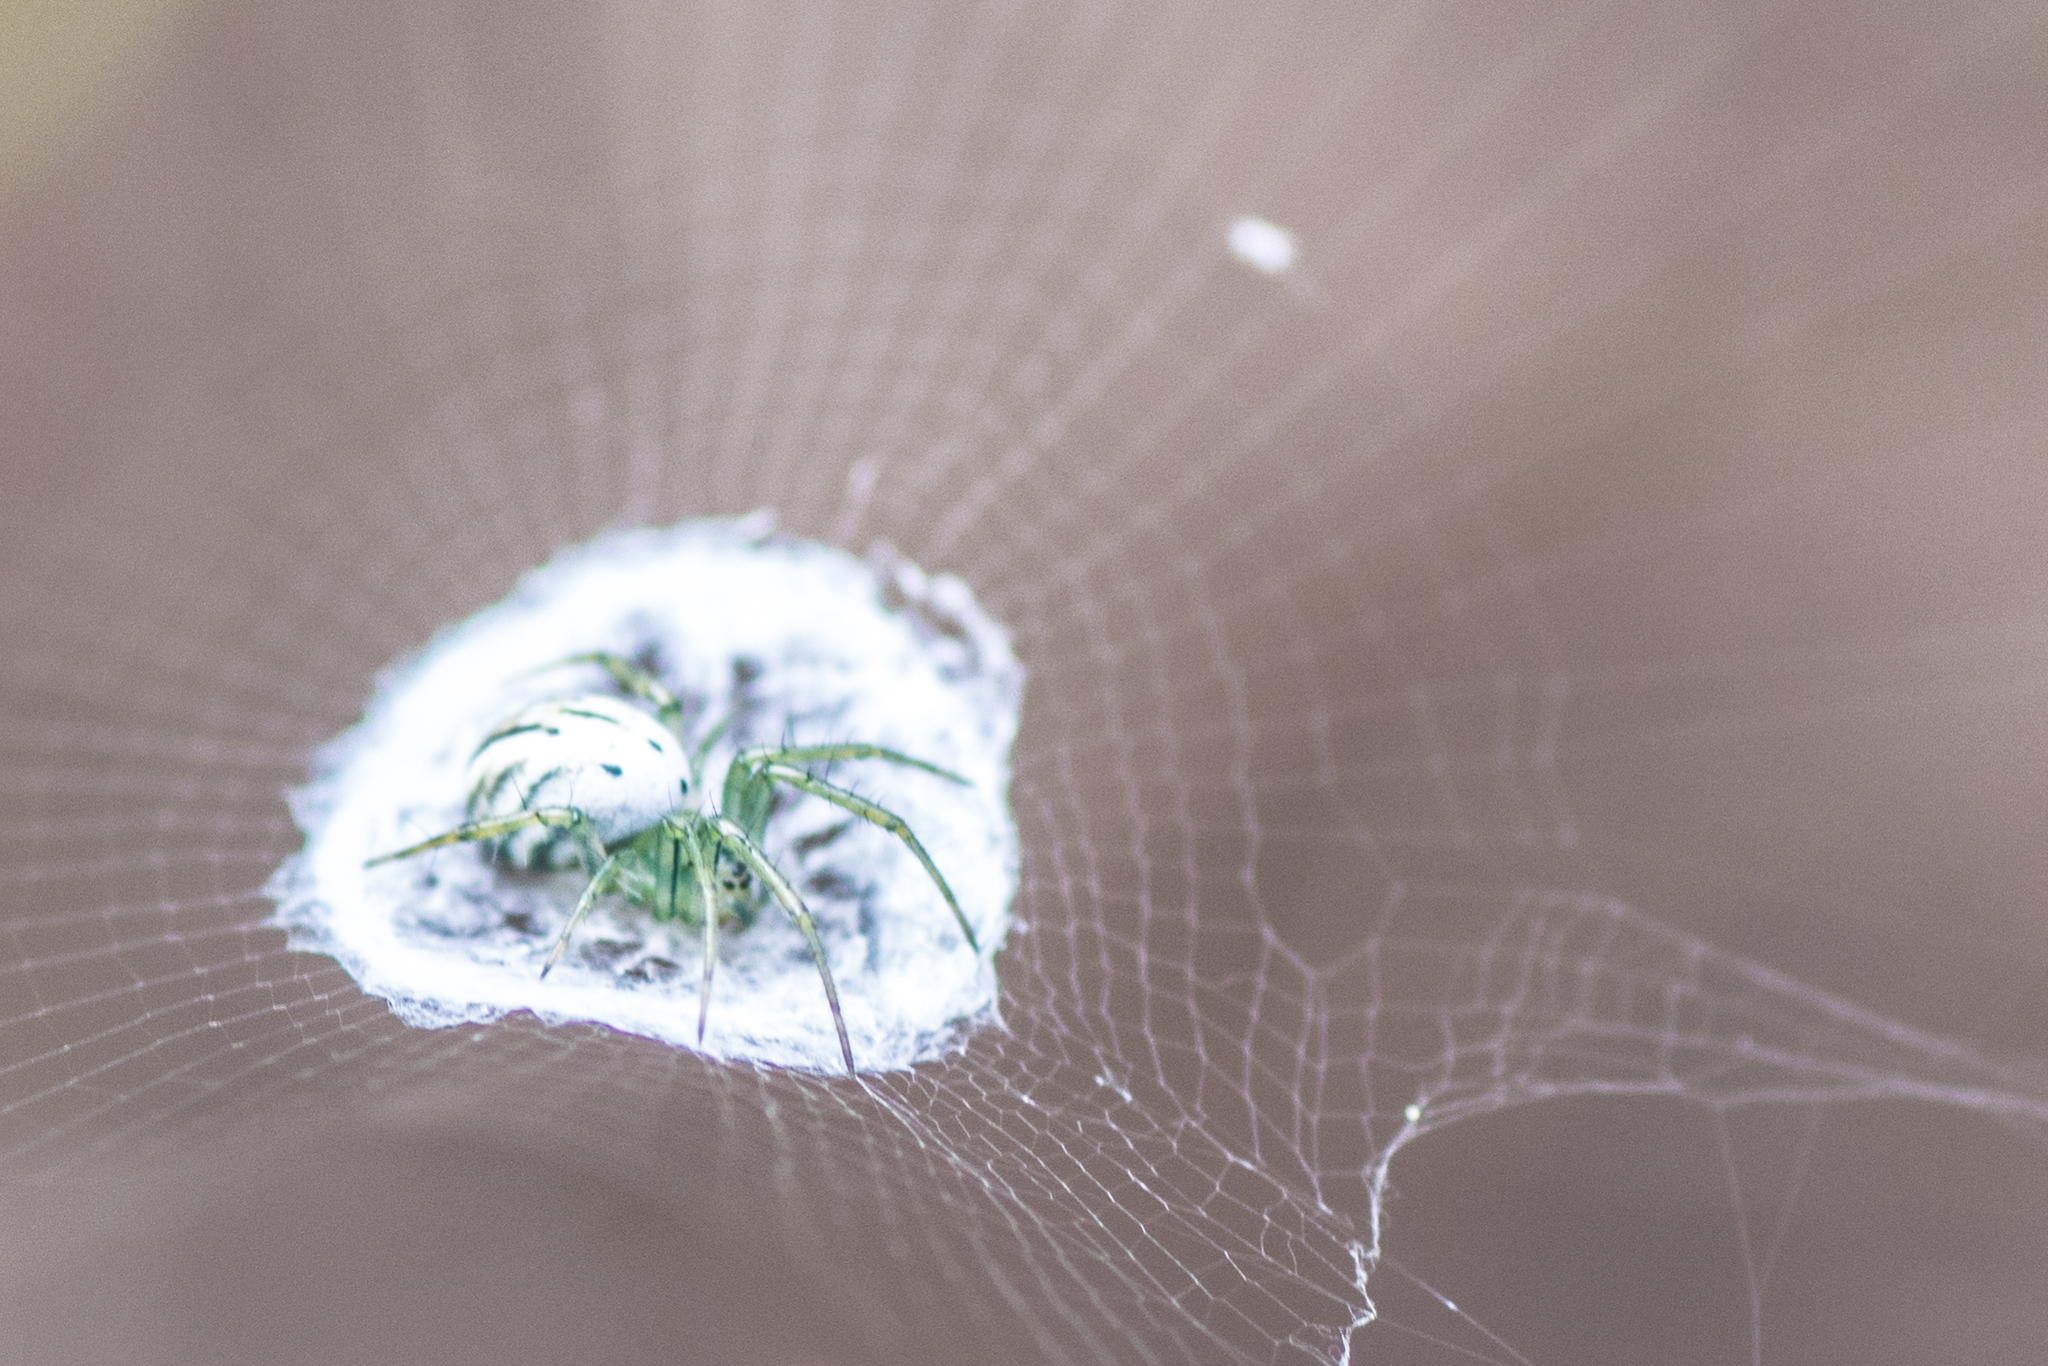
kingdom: Animalia
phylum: Arthropoda
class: Arachnida
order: Araneae
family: Araneidae
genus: Mangora
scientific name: Mangora gibberosa
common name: Lined orbweaver
